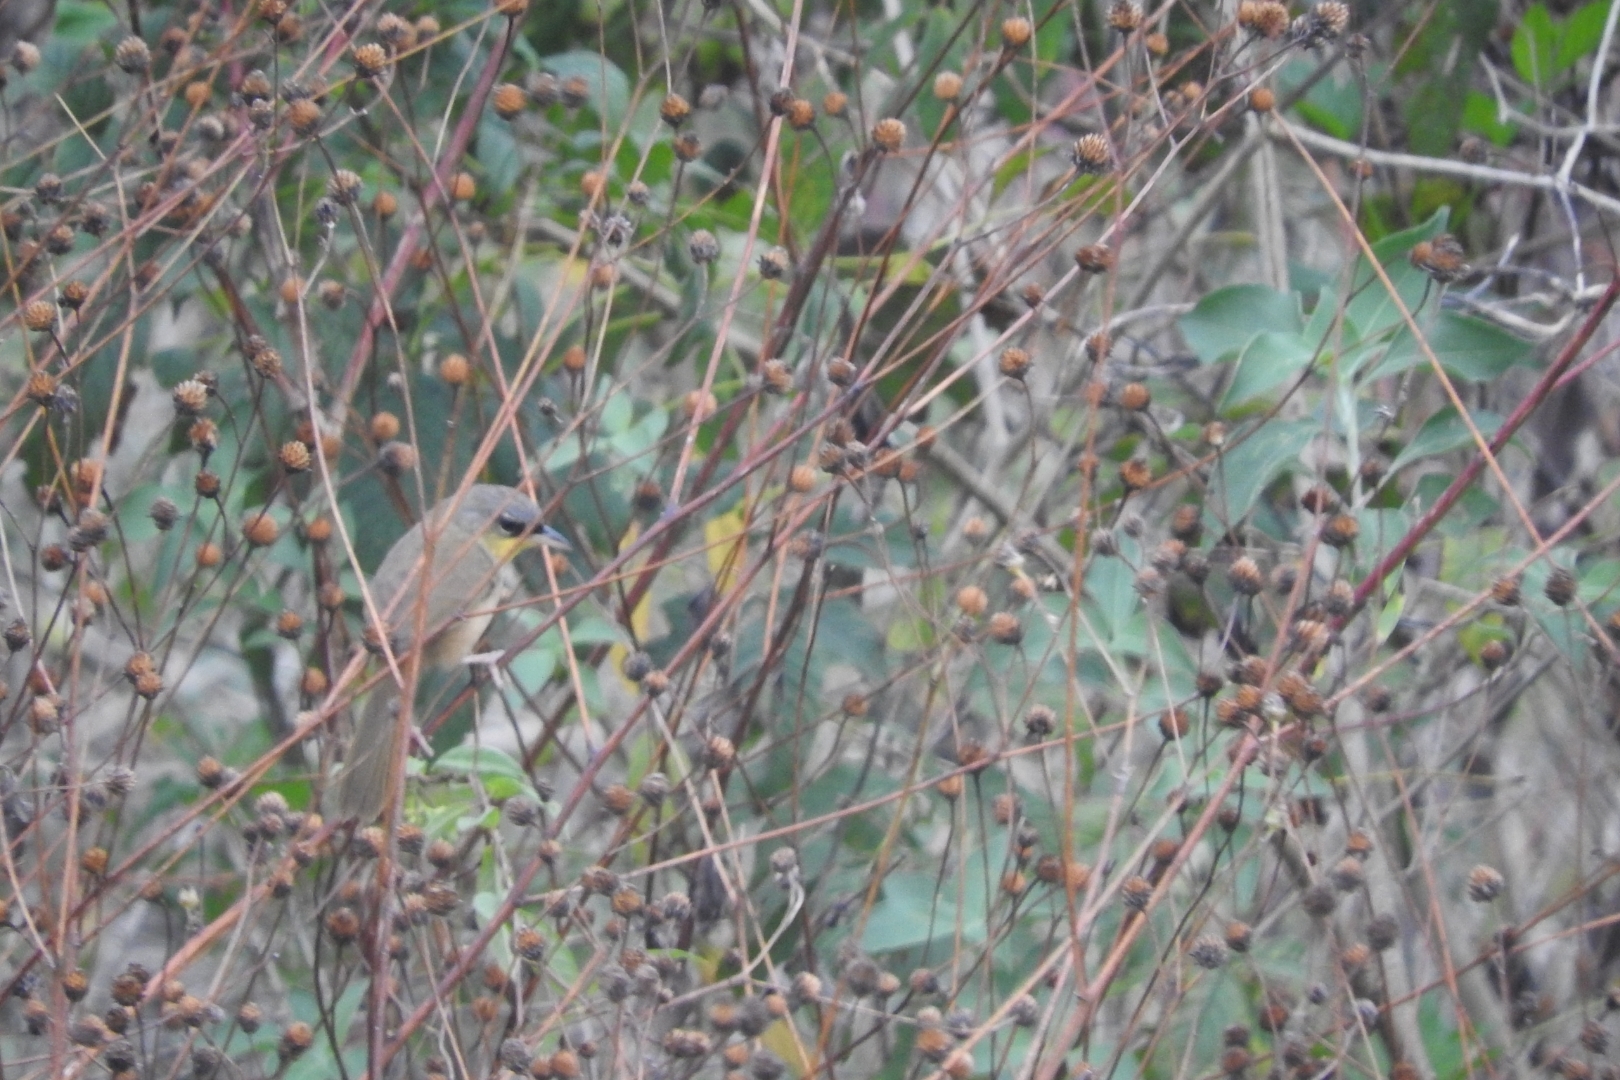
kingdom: Animalia
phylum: Chordata
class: Aves
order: Passeriformes
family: Parulidae
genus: Geothlypis
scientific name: Geothlypis poliocephala
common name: Gray-crowned yellowthroat
